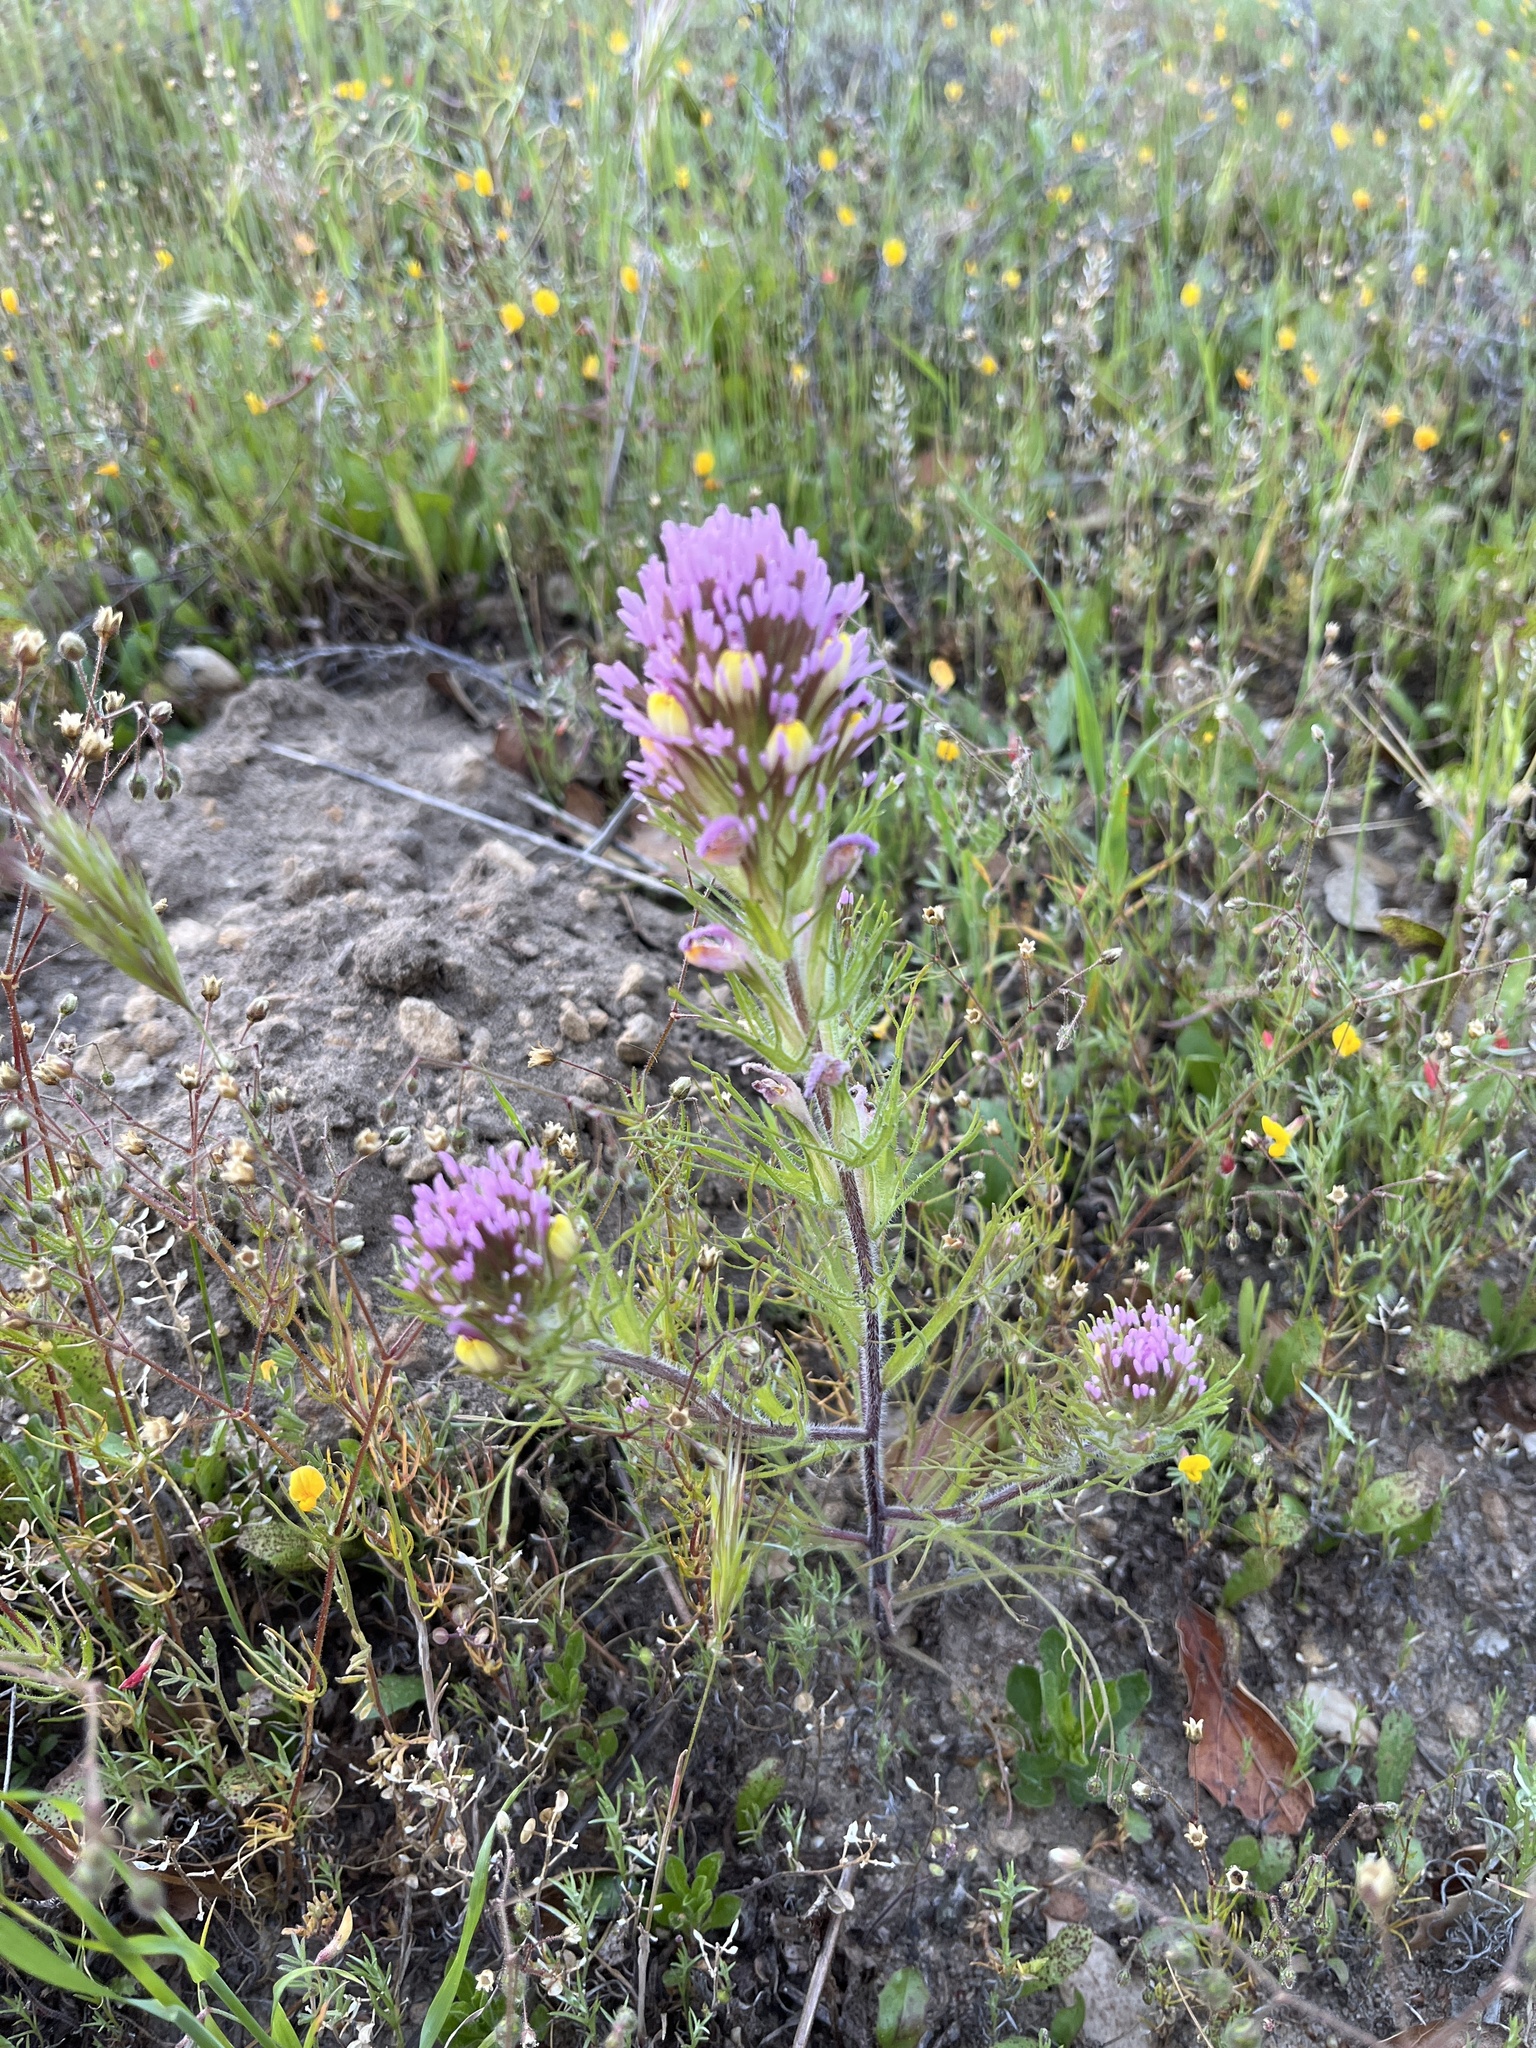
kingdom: Plantae
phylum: Tracheophyta
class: Magnoliopsida
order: Lamiales
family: Orobanchaceae
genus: Castilleja
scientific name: Castilleja exserta
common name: Purple owl-clover
